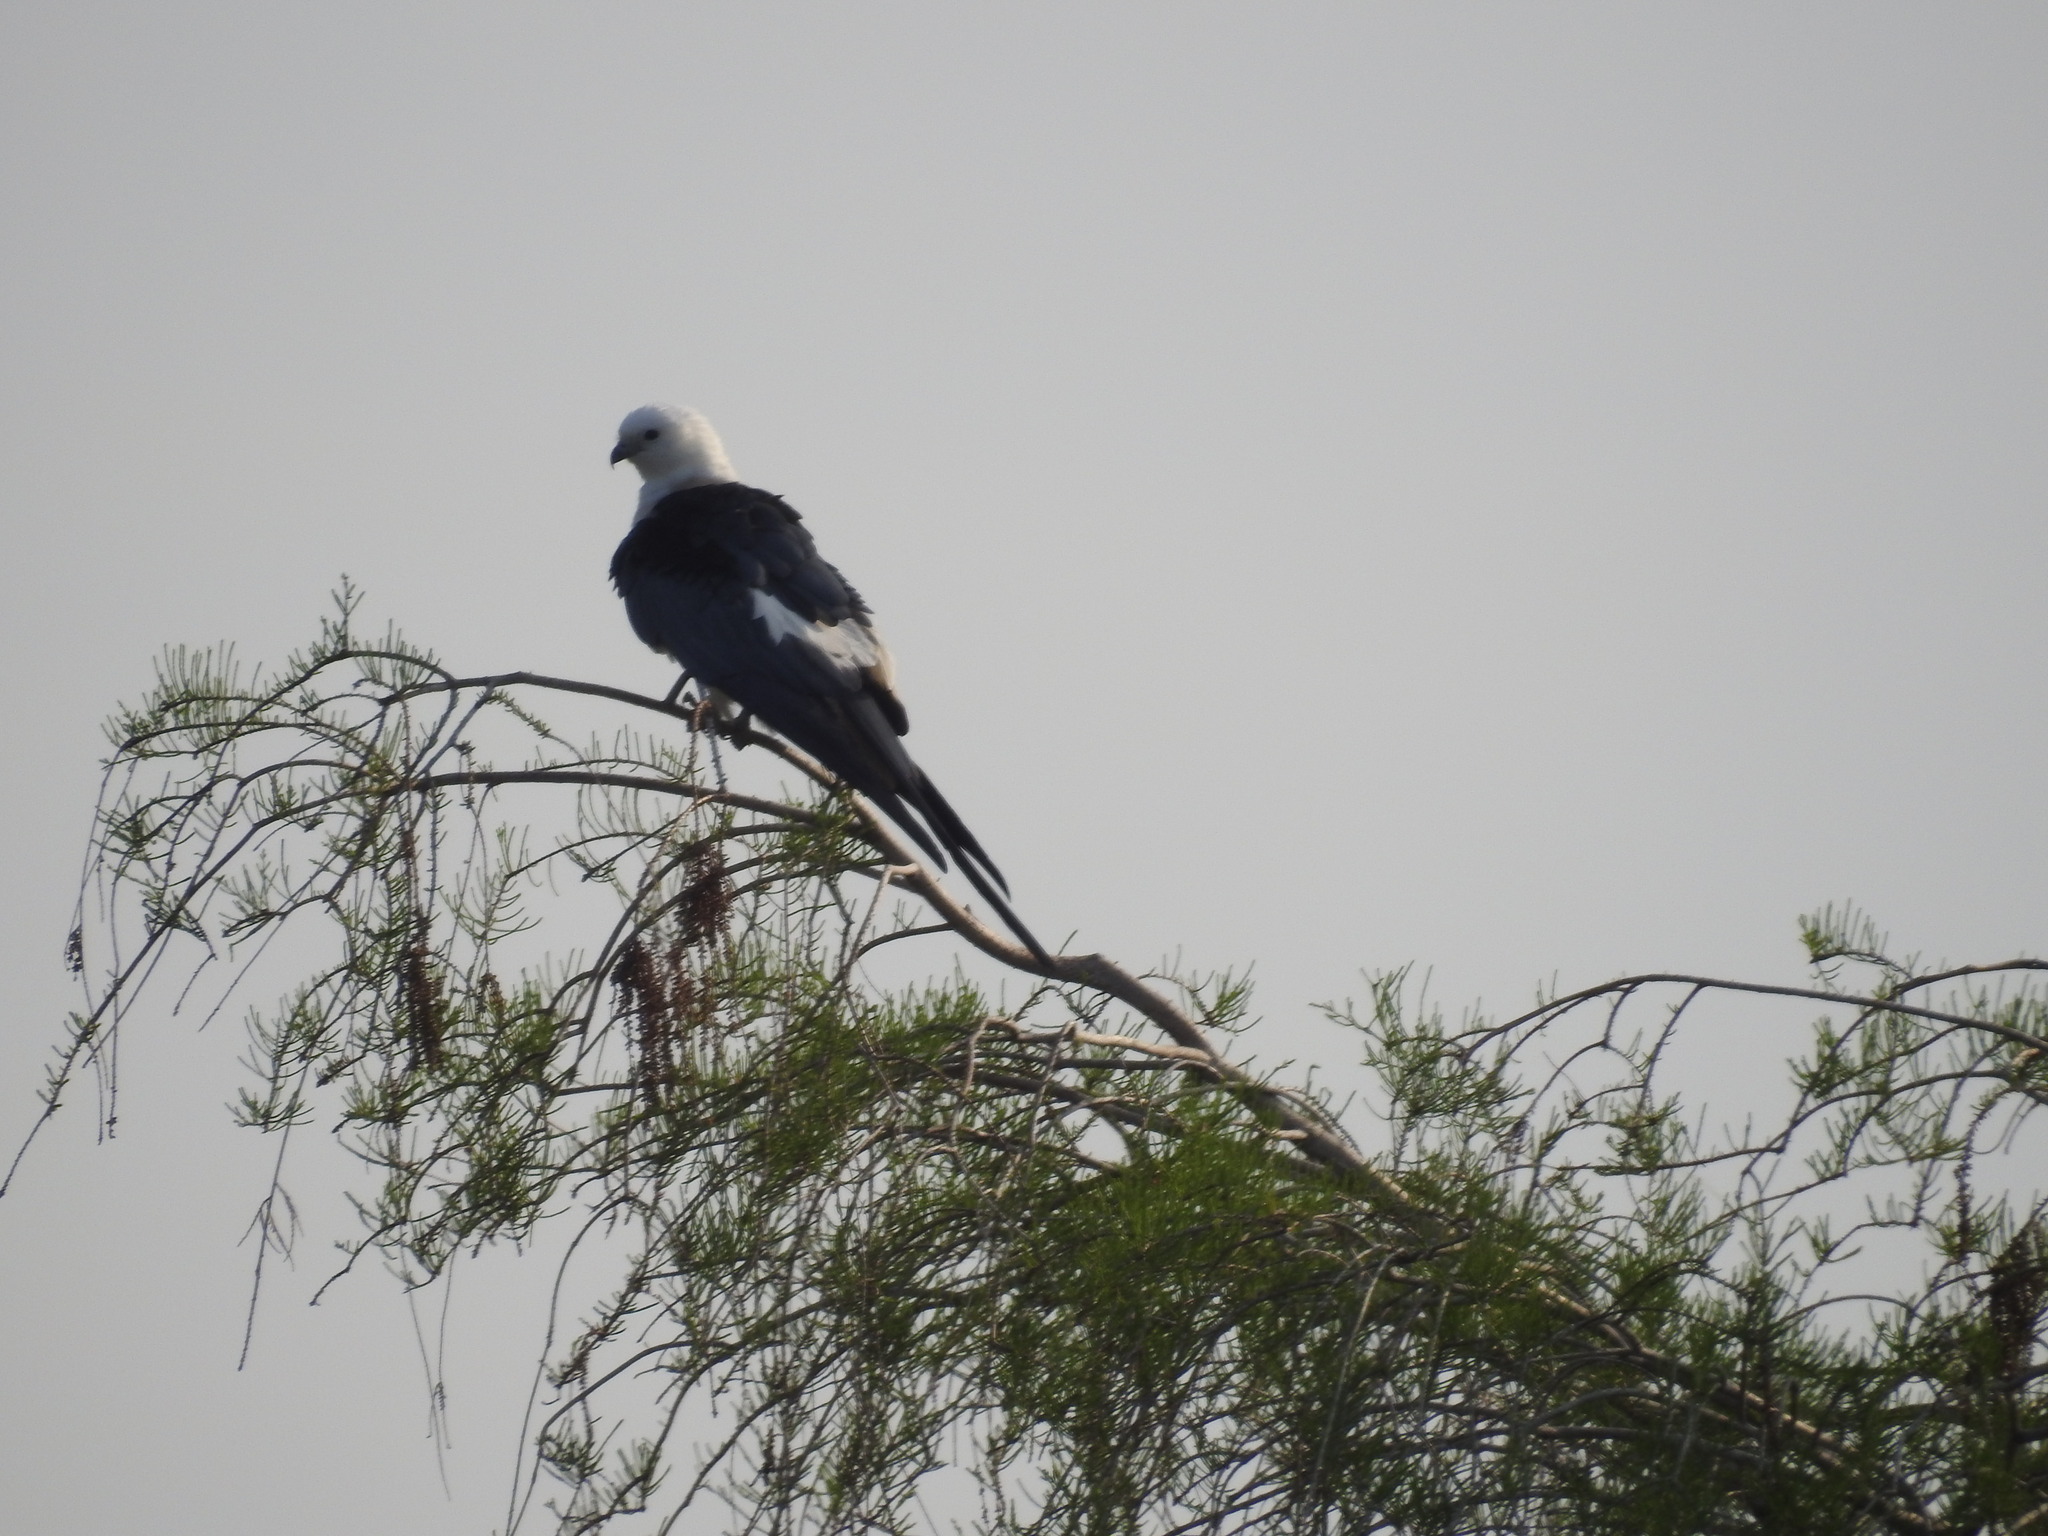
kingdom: Animalia
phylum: Chordata
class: Aves
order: Accipitriformes
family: Accipitridae
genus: Elanoides
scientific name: Elanoides forficatus
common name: Swallow-tailed kite
